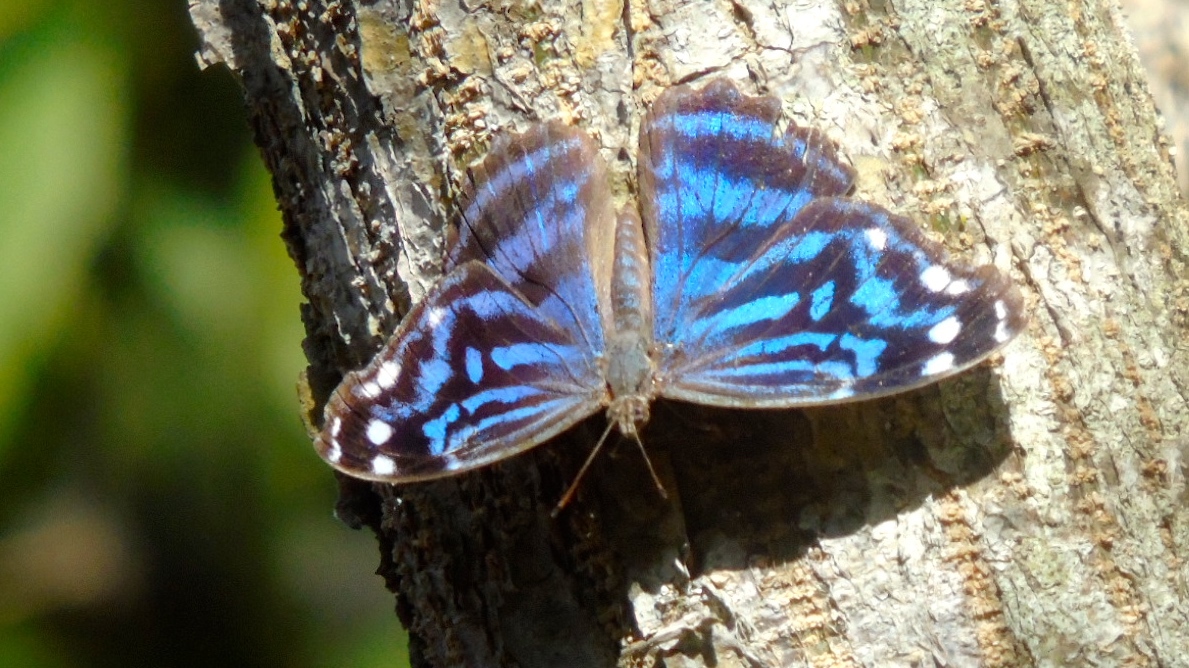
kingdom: Animalia
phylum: Arthropoda
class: Insecta
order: Lepidoptera
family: Nymphalidae
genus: Myscelia
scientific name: Myscelia ethusa
